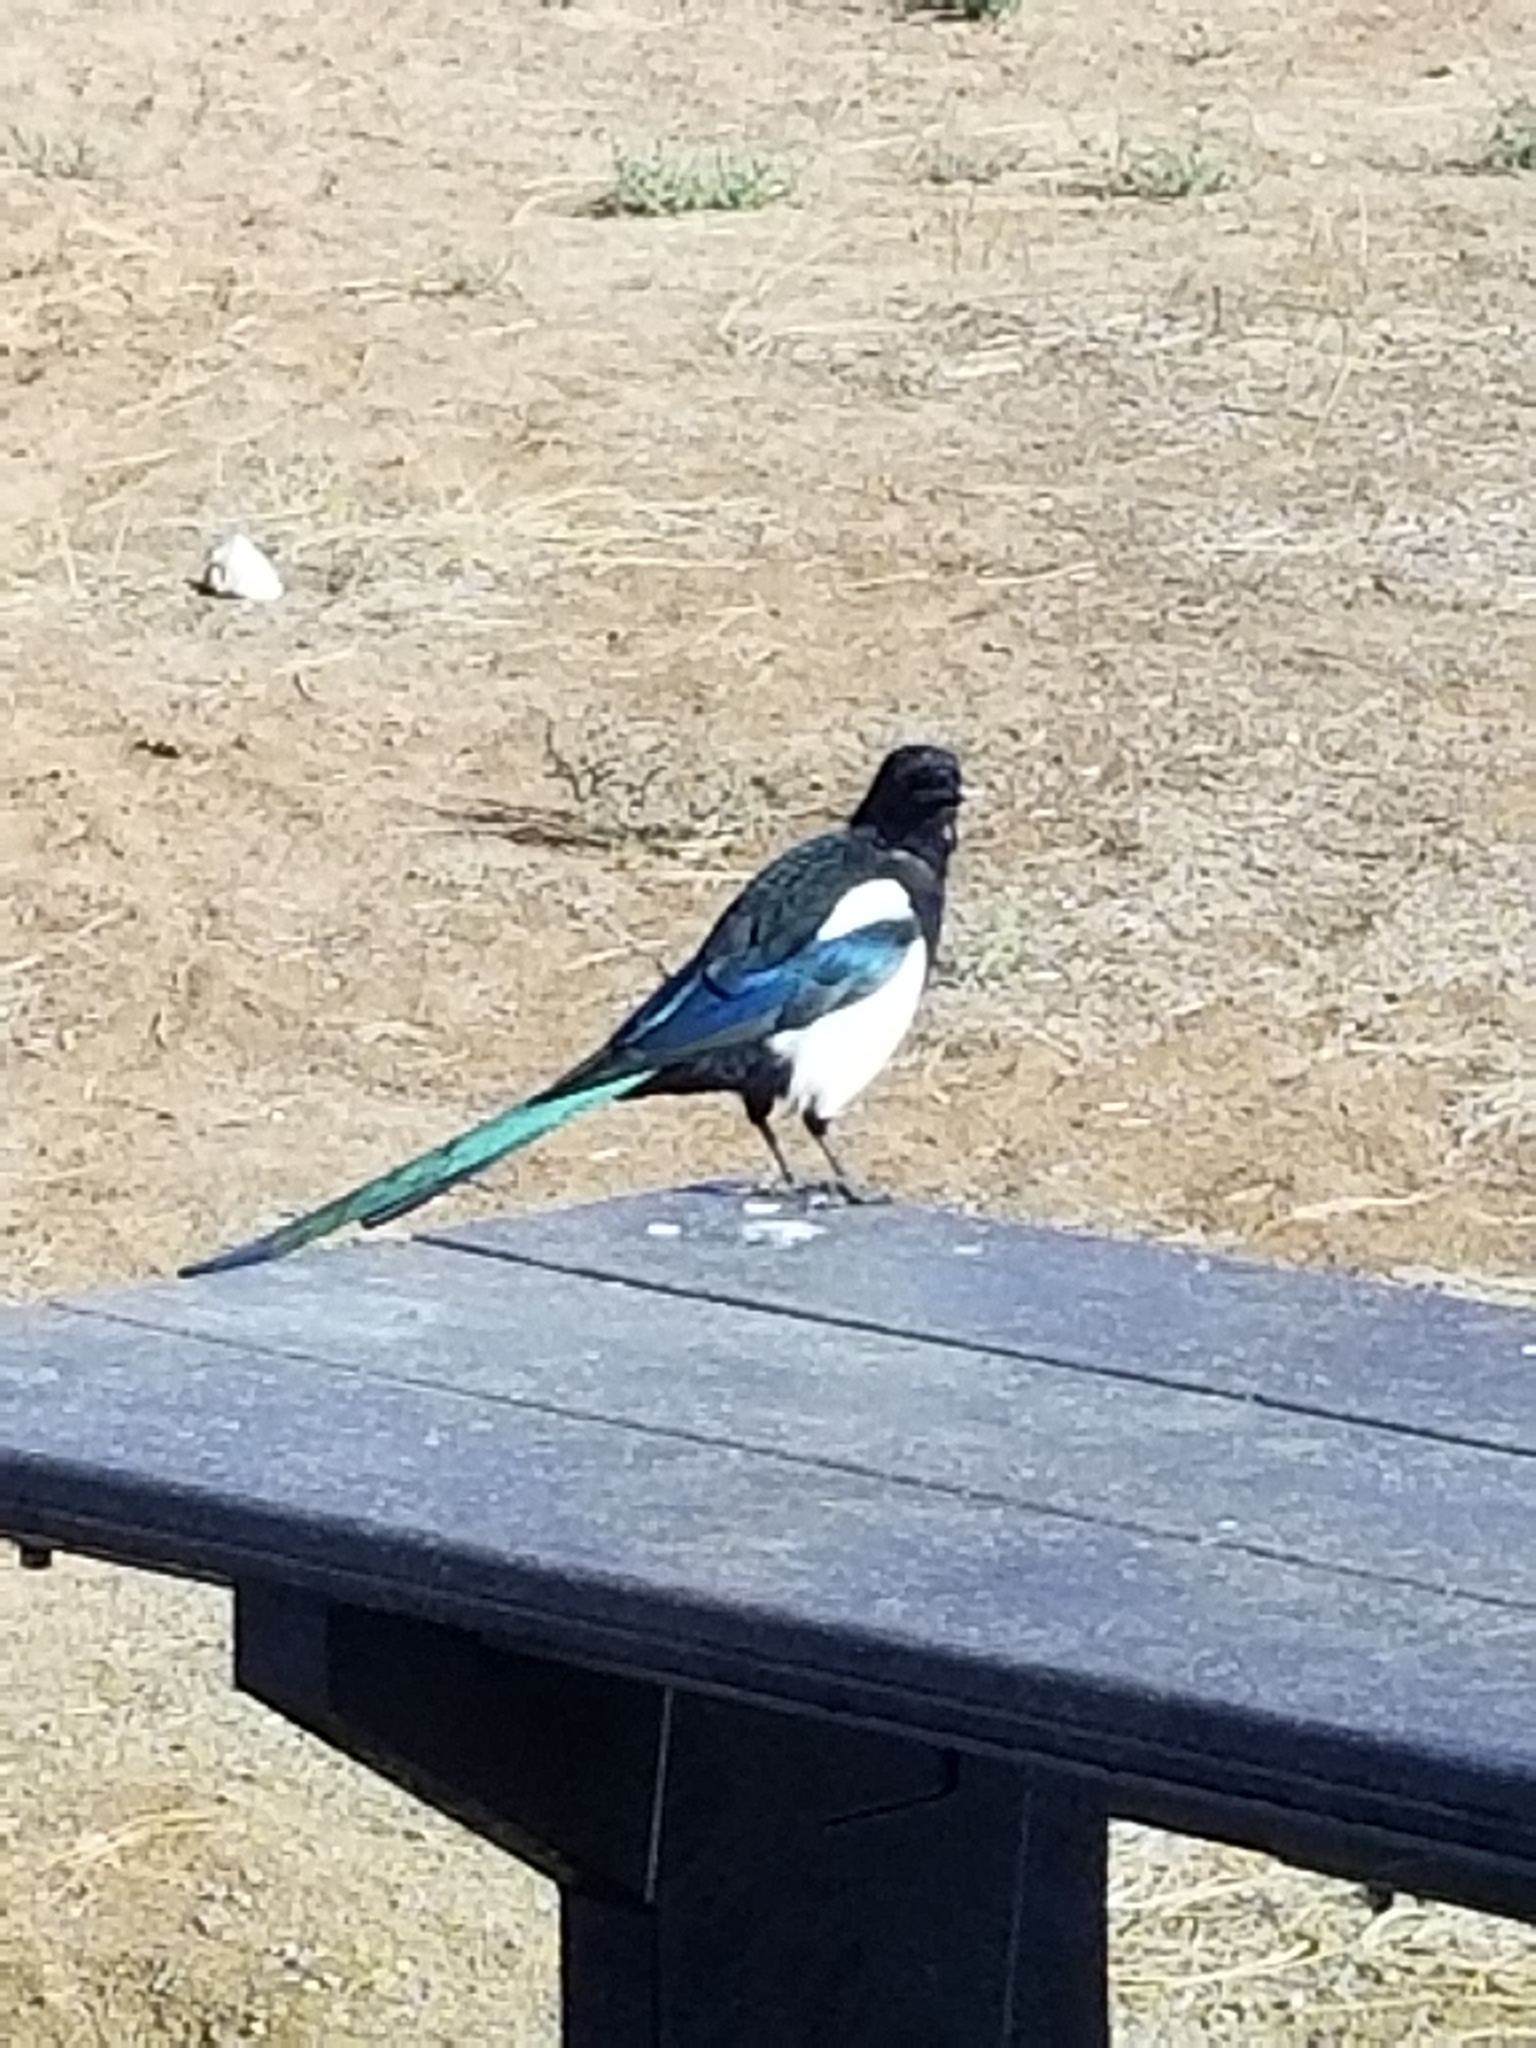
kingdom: Animalia
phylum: Chordata
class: Aves
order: Passeriformes
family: Corvidae
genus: Pica
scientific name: Pica hudsonia
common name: Black-billed magpie
